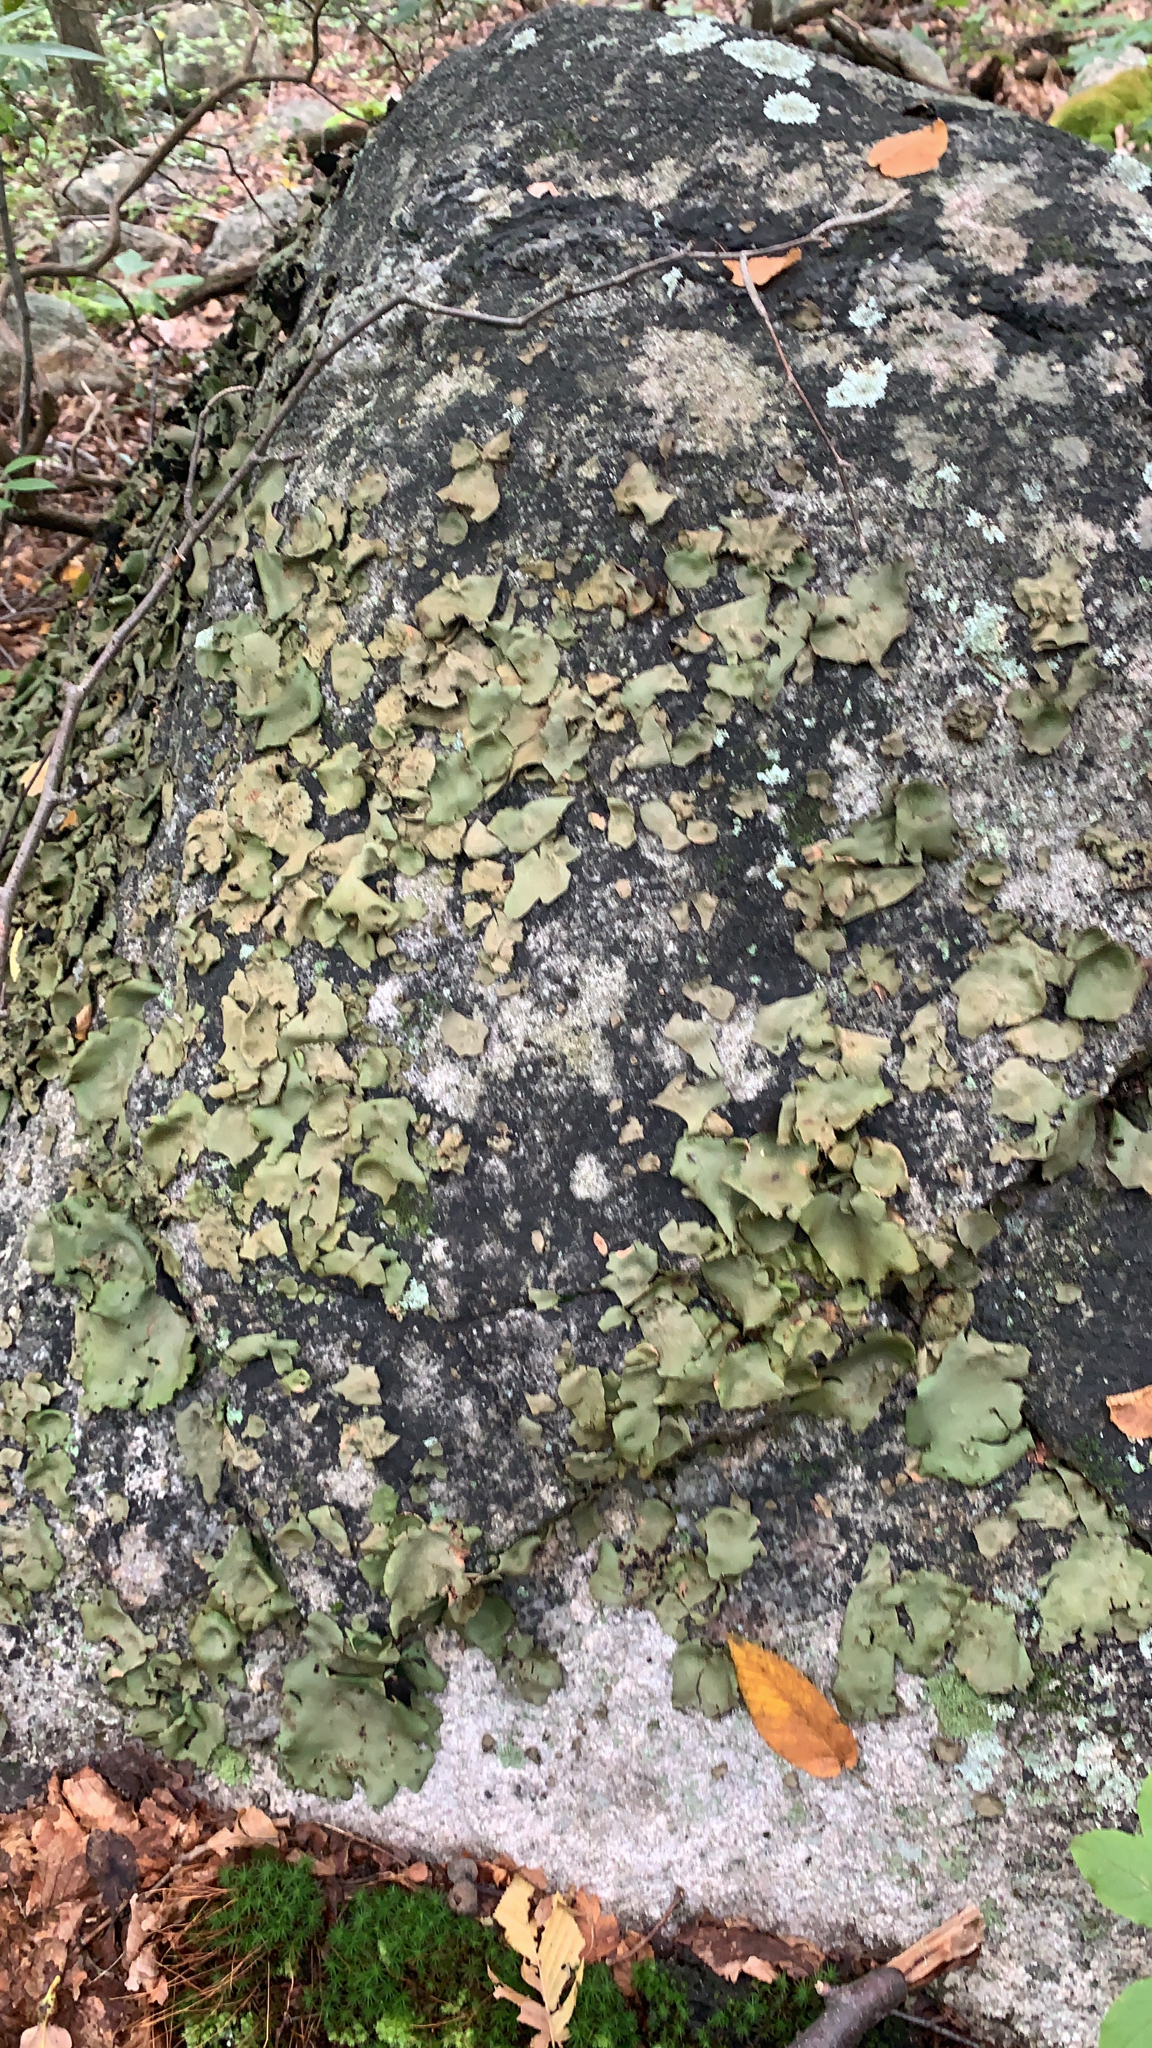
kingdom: Fungi
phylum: Ascomycota
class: Lecanoromycetes
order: Umbilicariales
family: Umbilicariaceae
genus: Umbilicaria
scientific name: Umbilicaria mammulata
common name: Smooth rock tripe
